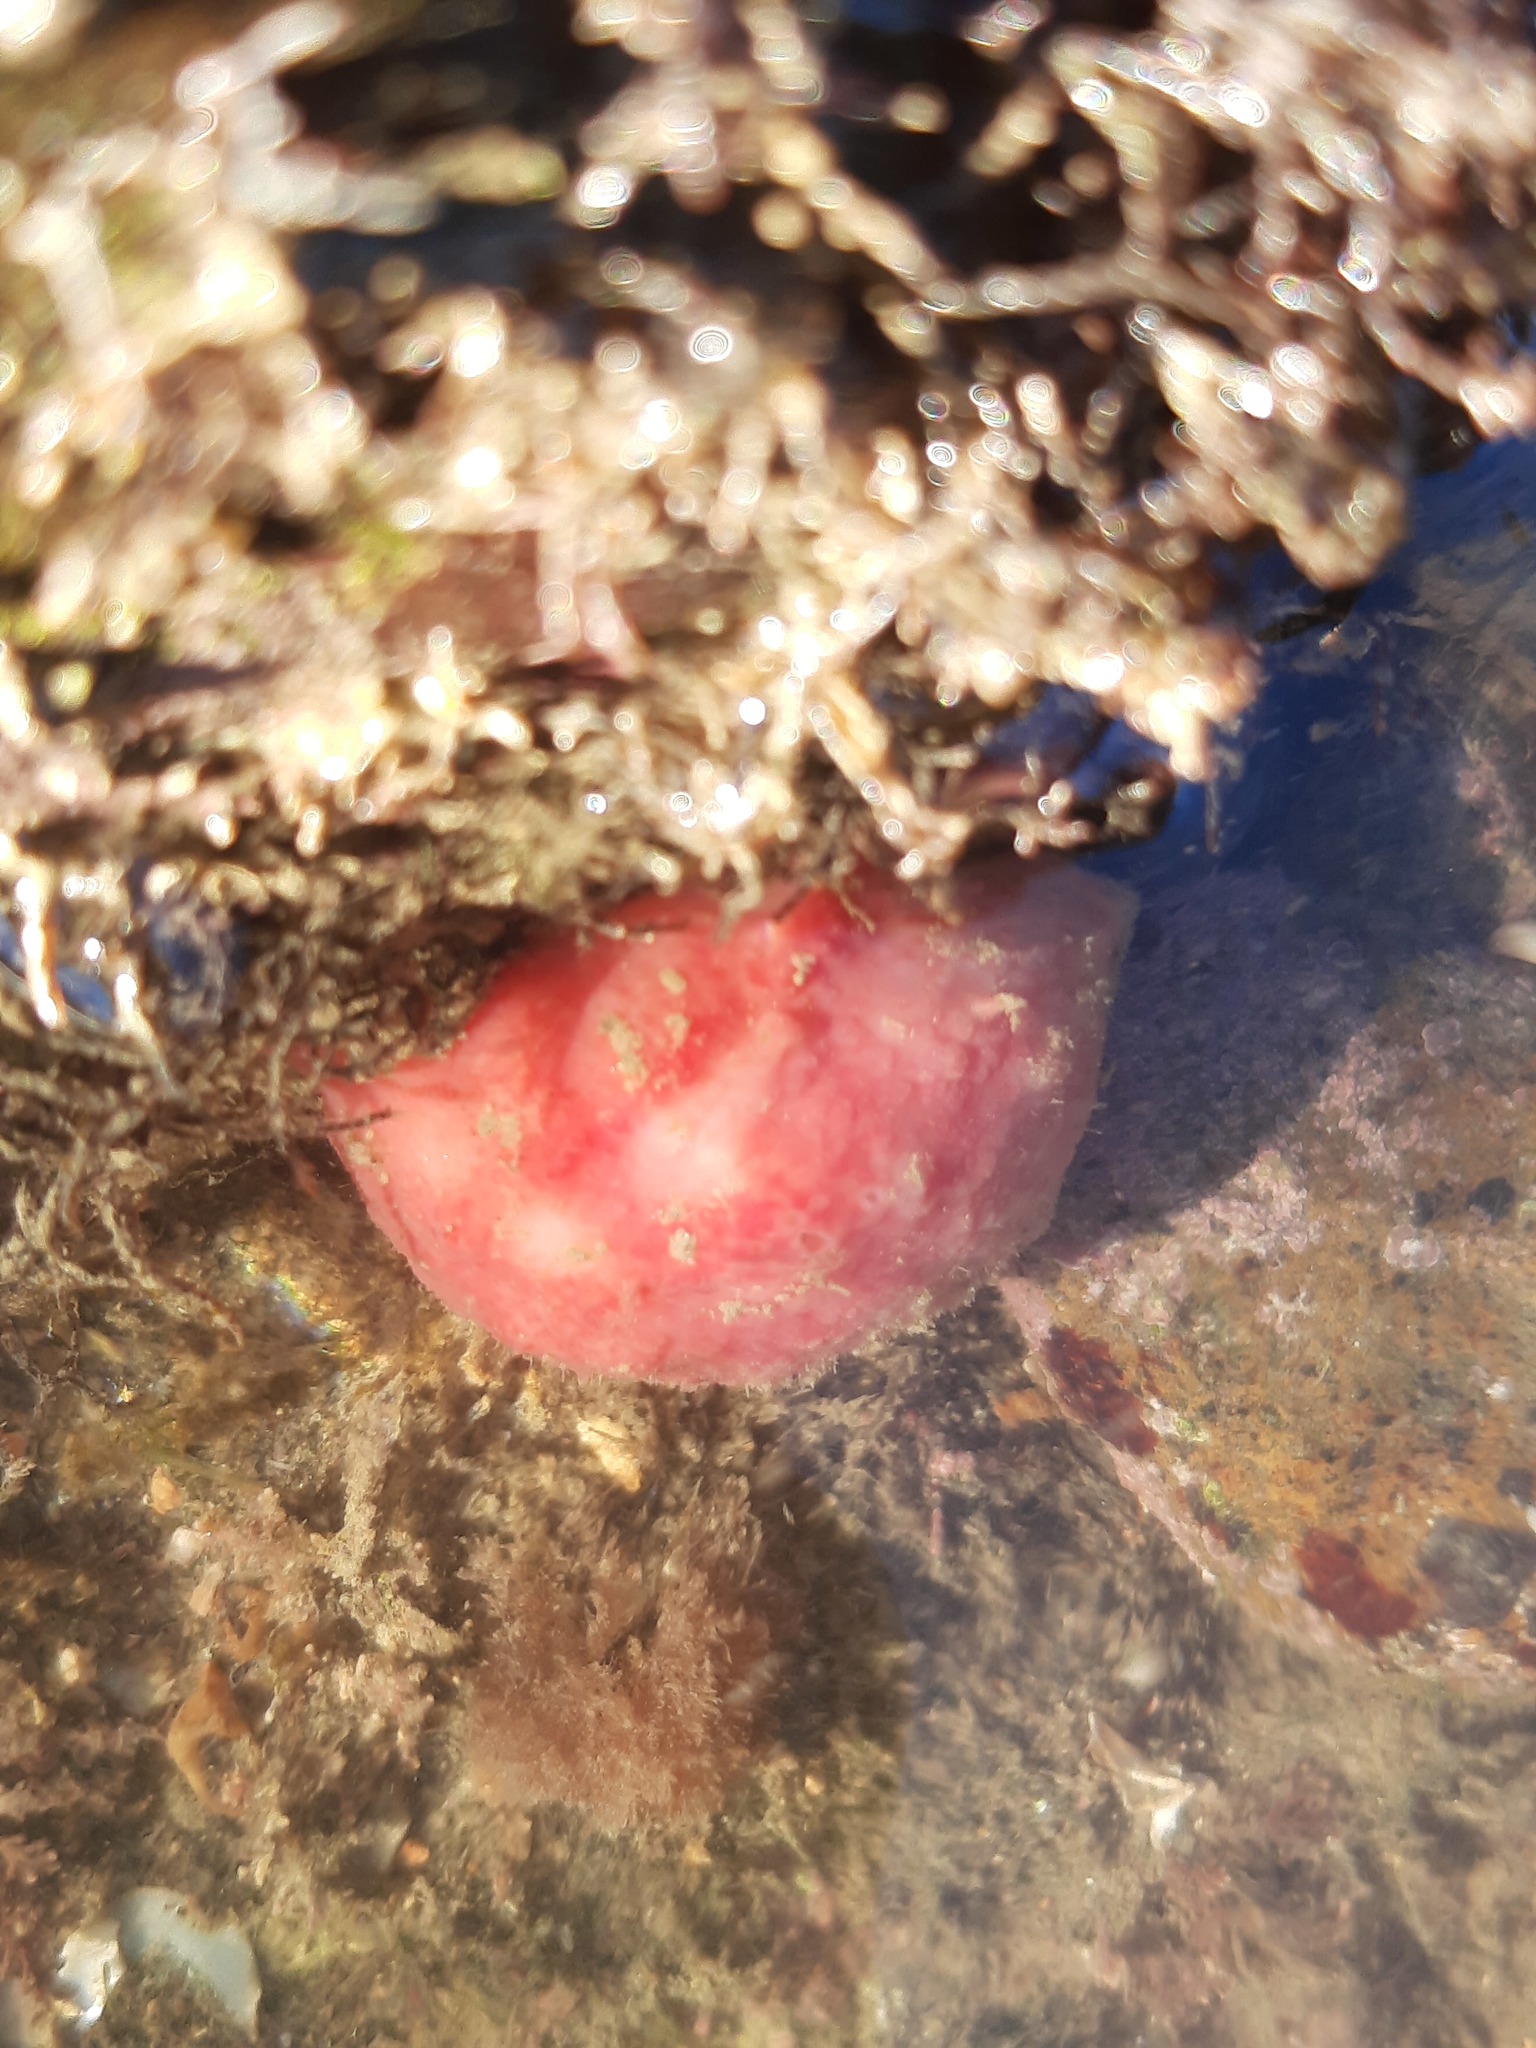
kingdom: Animalia
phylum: Porifera
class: Demospongiae
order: Tethyida
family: Tethyidae
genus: Tethya
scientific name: Tethya bergquistae
